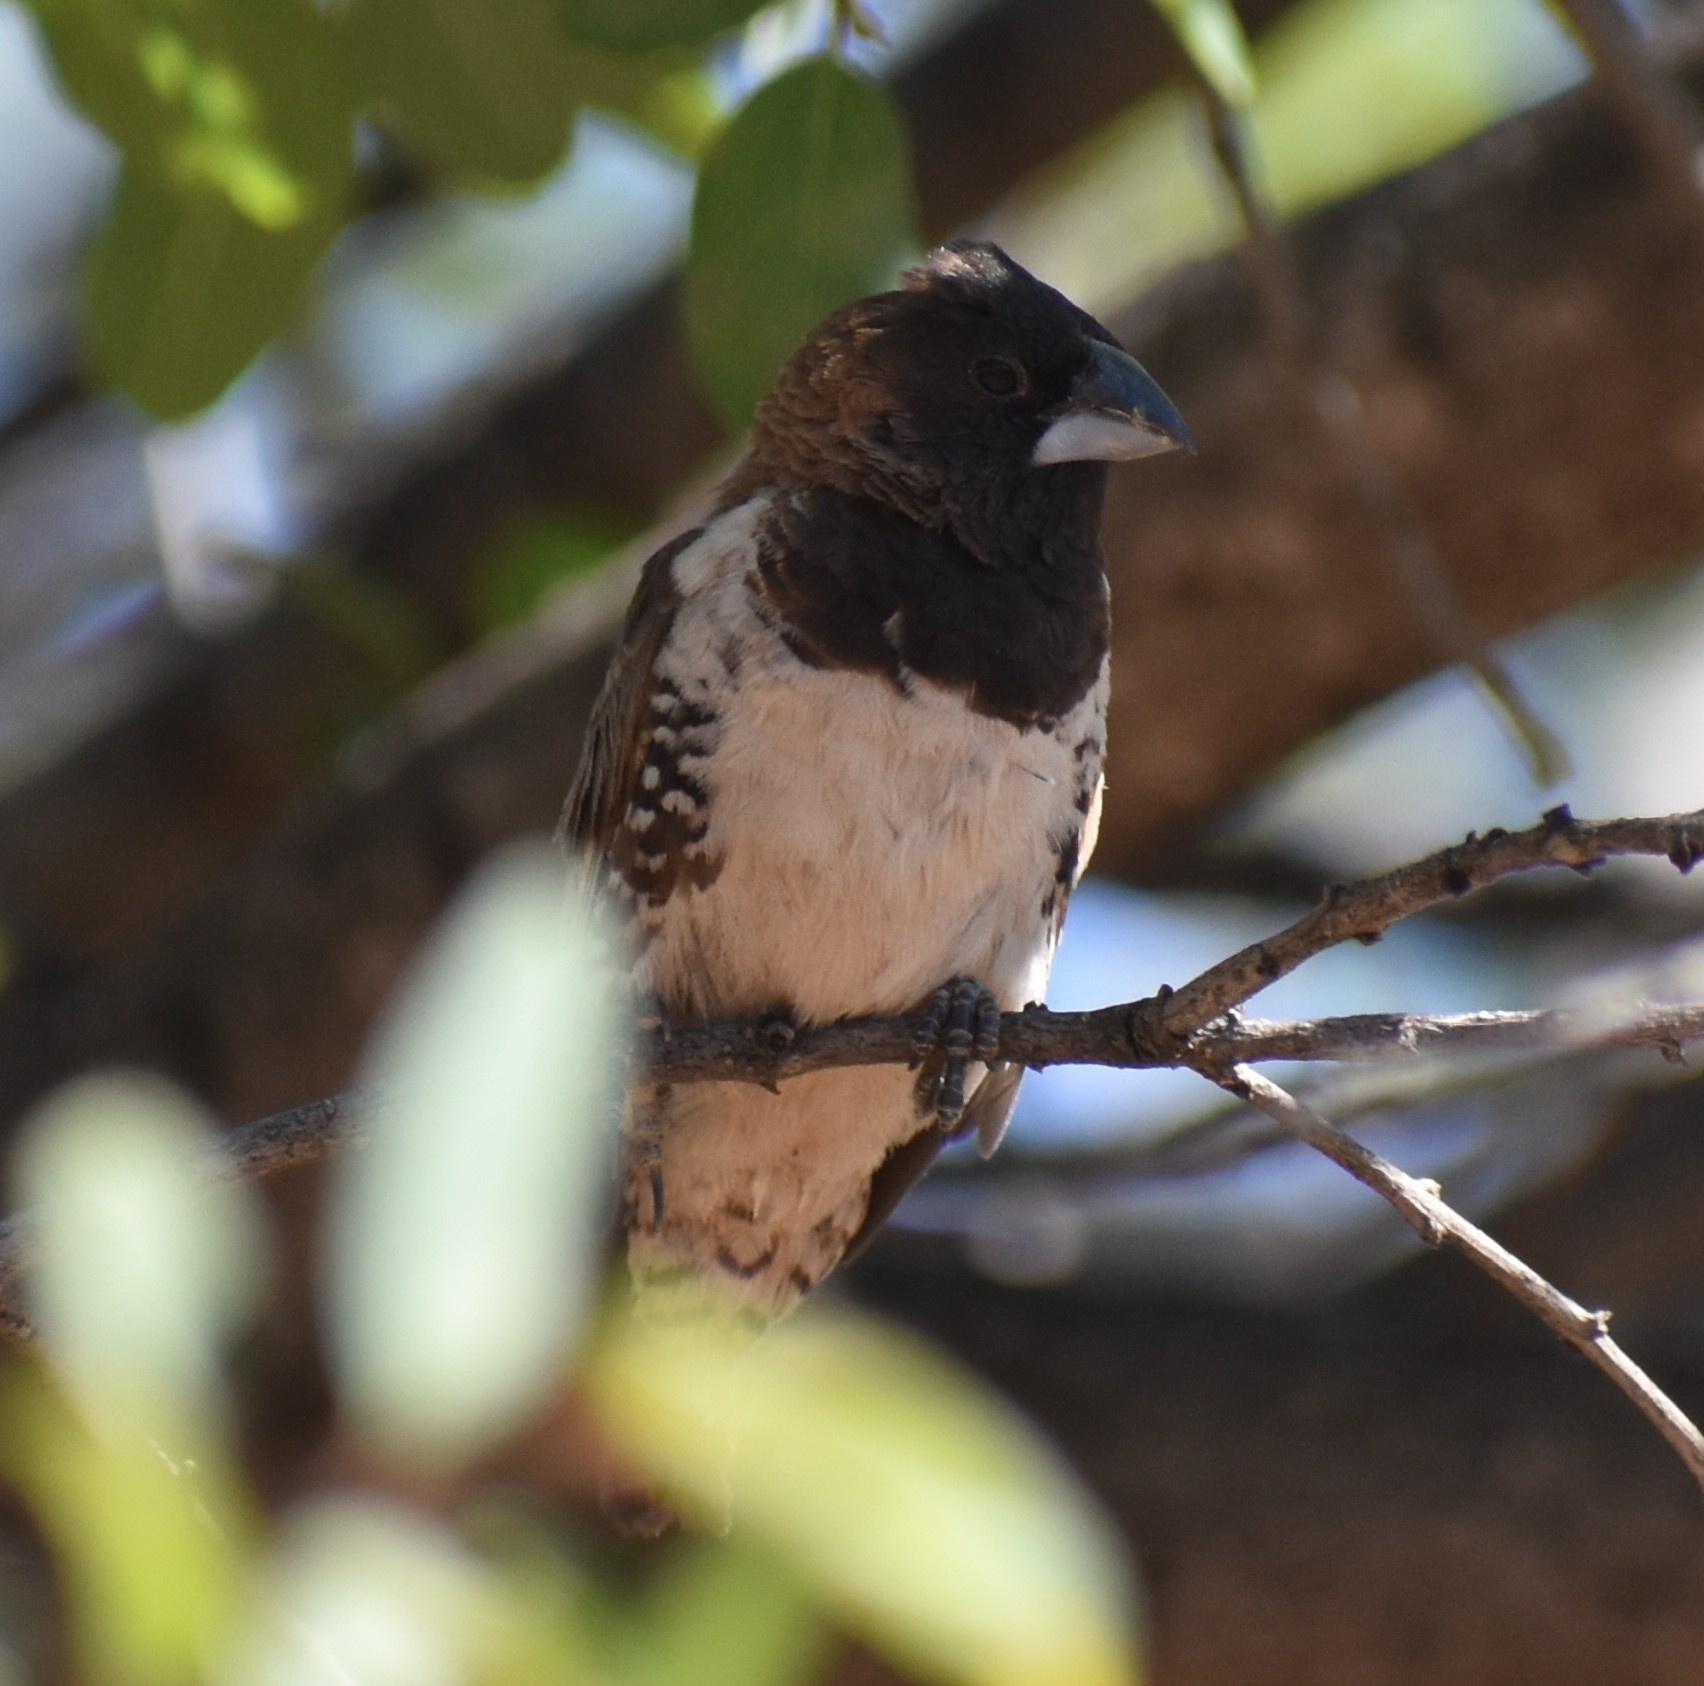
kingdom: Animalia
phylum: Chordata
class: Aves
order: Passeriformes
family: Estrildidae
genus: Lonchura
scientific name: Lonchura cucullata
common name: Bronze mannikin
